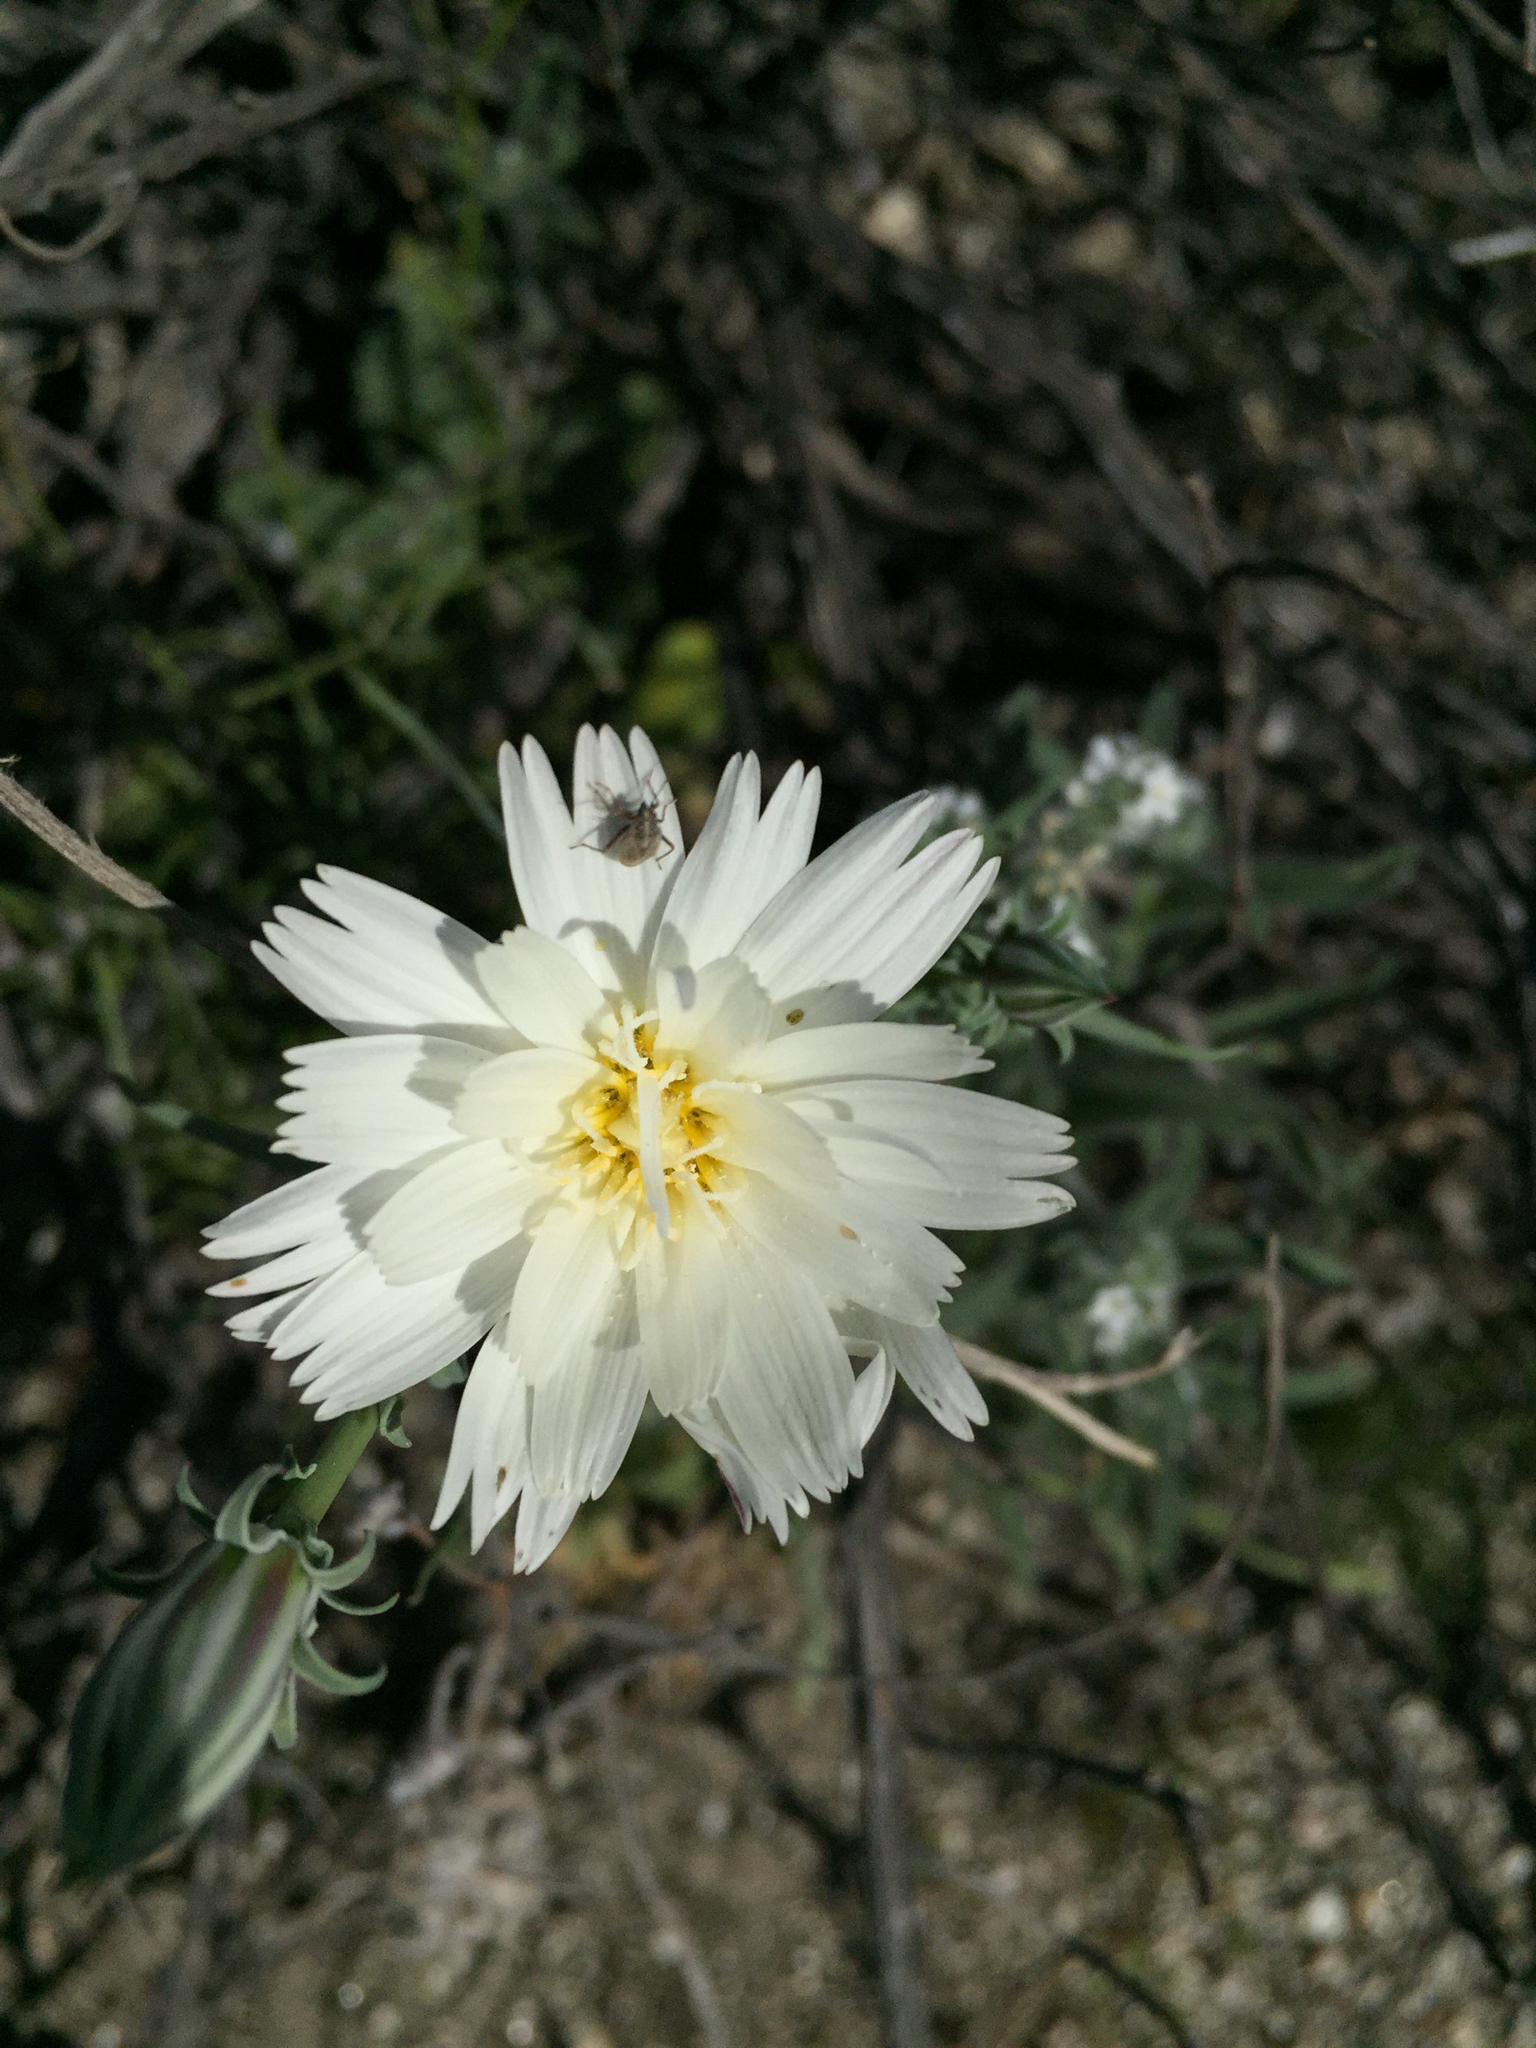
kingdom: Plantae
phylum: Tracheophyta
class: Magnoliopsida
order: Asterales
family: Asteraceae
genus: Rafinesquia
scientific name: Rafinesquia neomexicana
